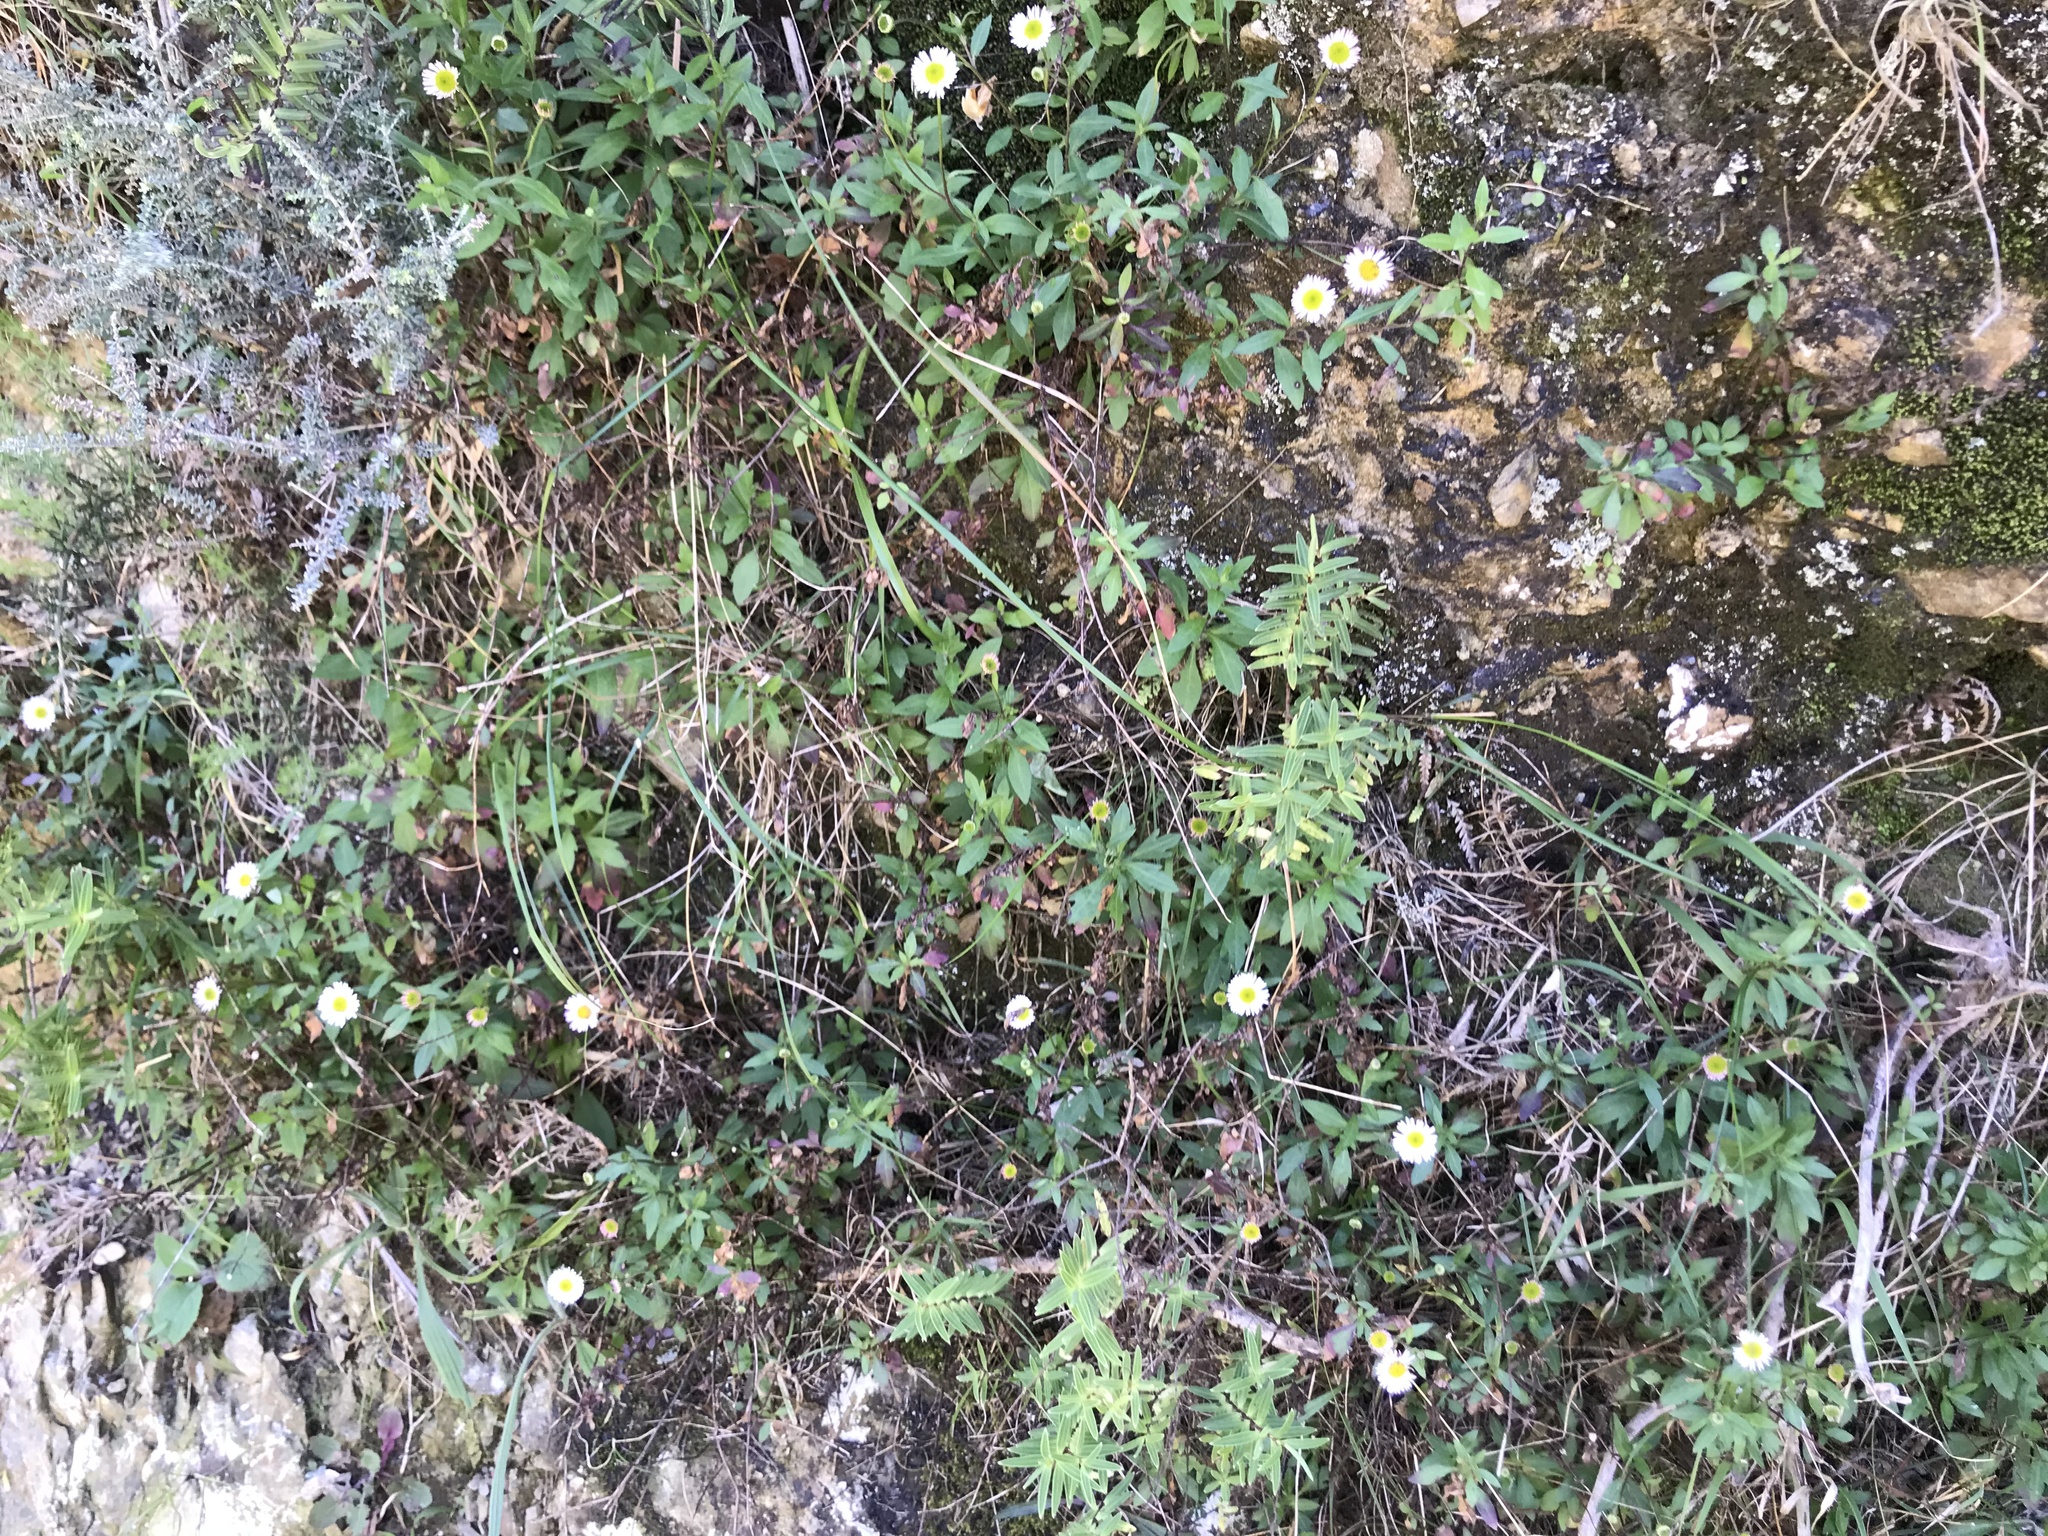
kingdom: Plantae
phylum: Tracheophyta
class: Magnoliopsida
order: Asterales
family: Asteraceae
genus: Erigeron
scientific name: Erigeron karvinskianus
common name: Mexican fleabane
